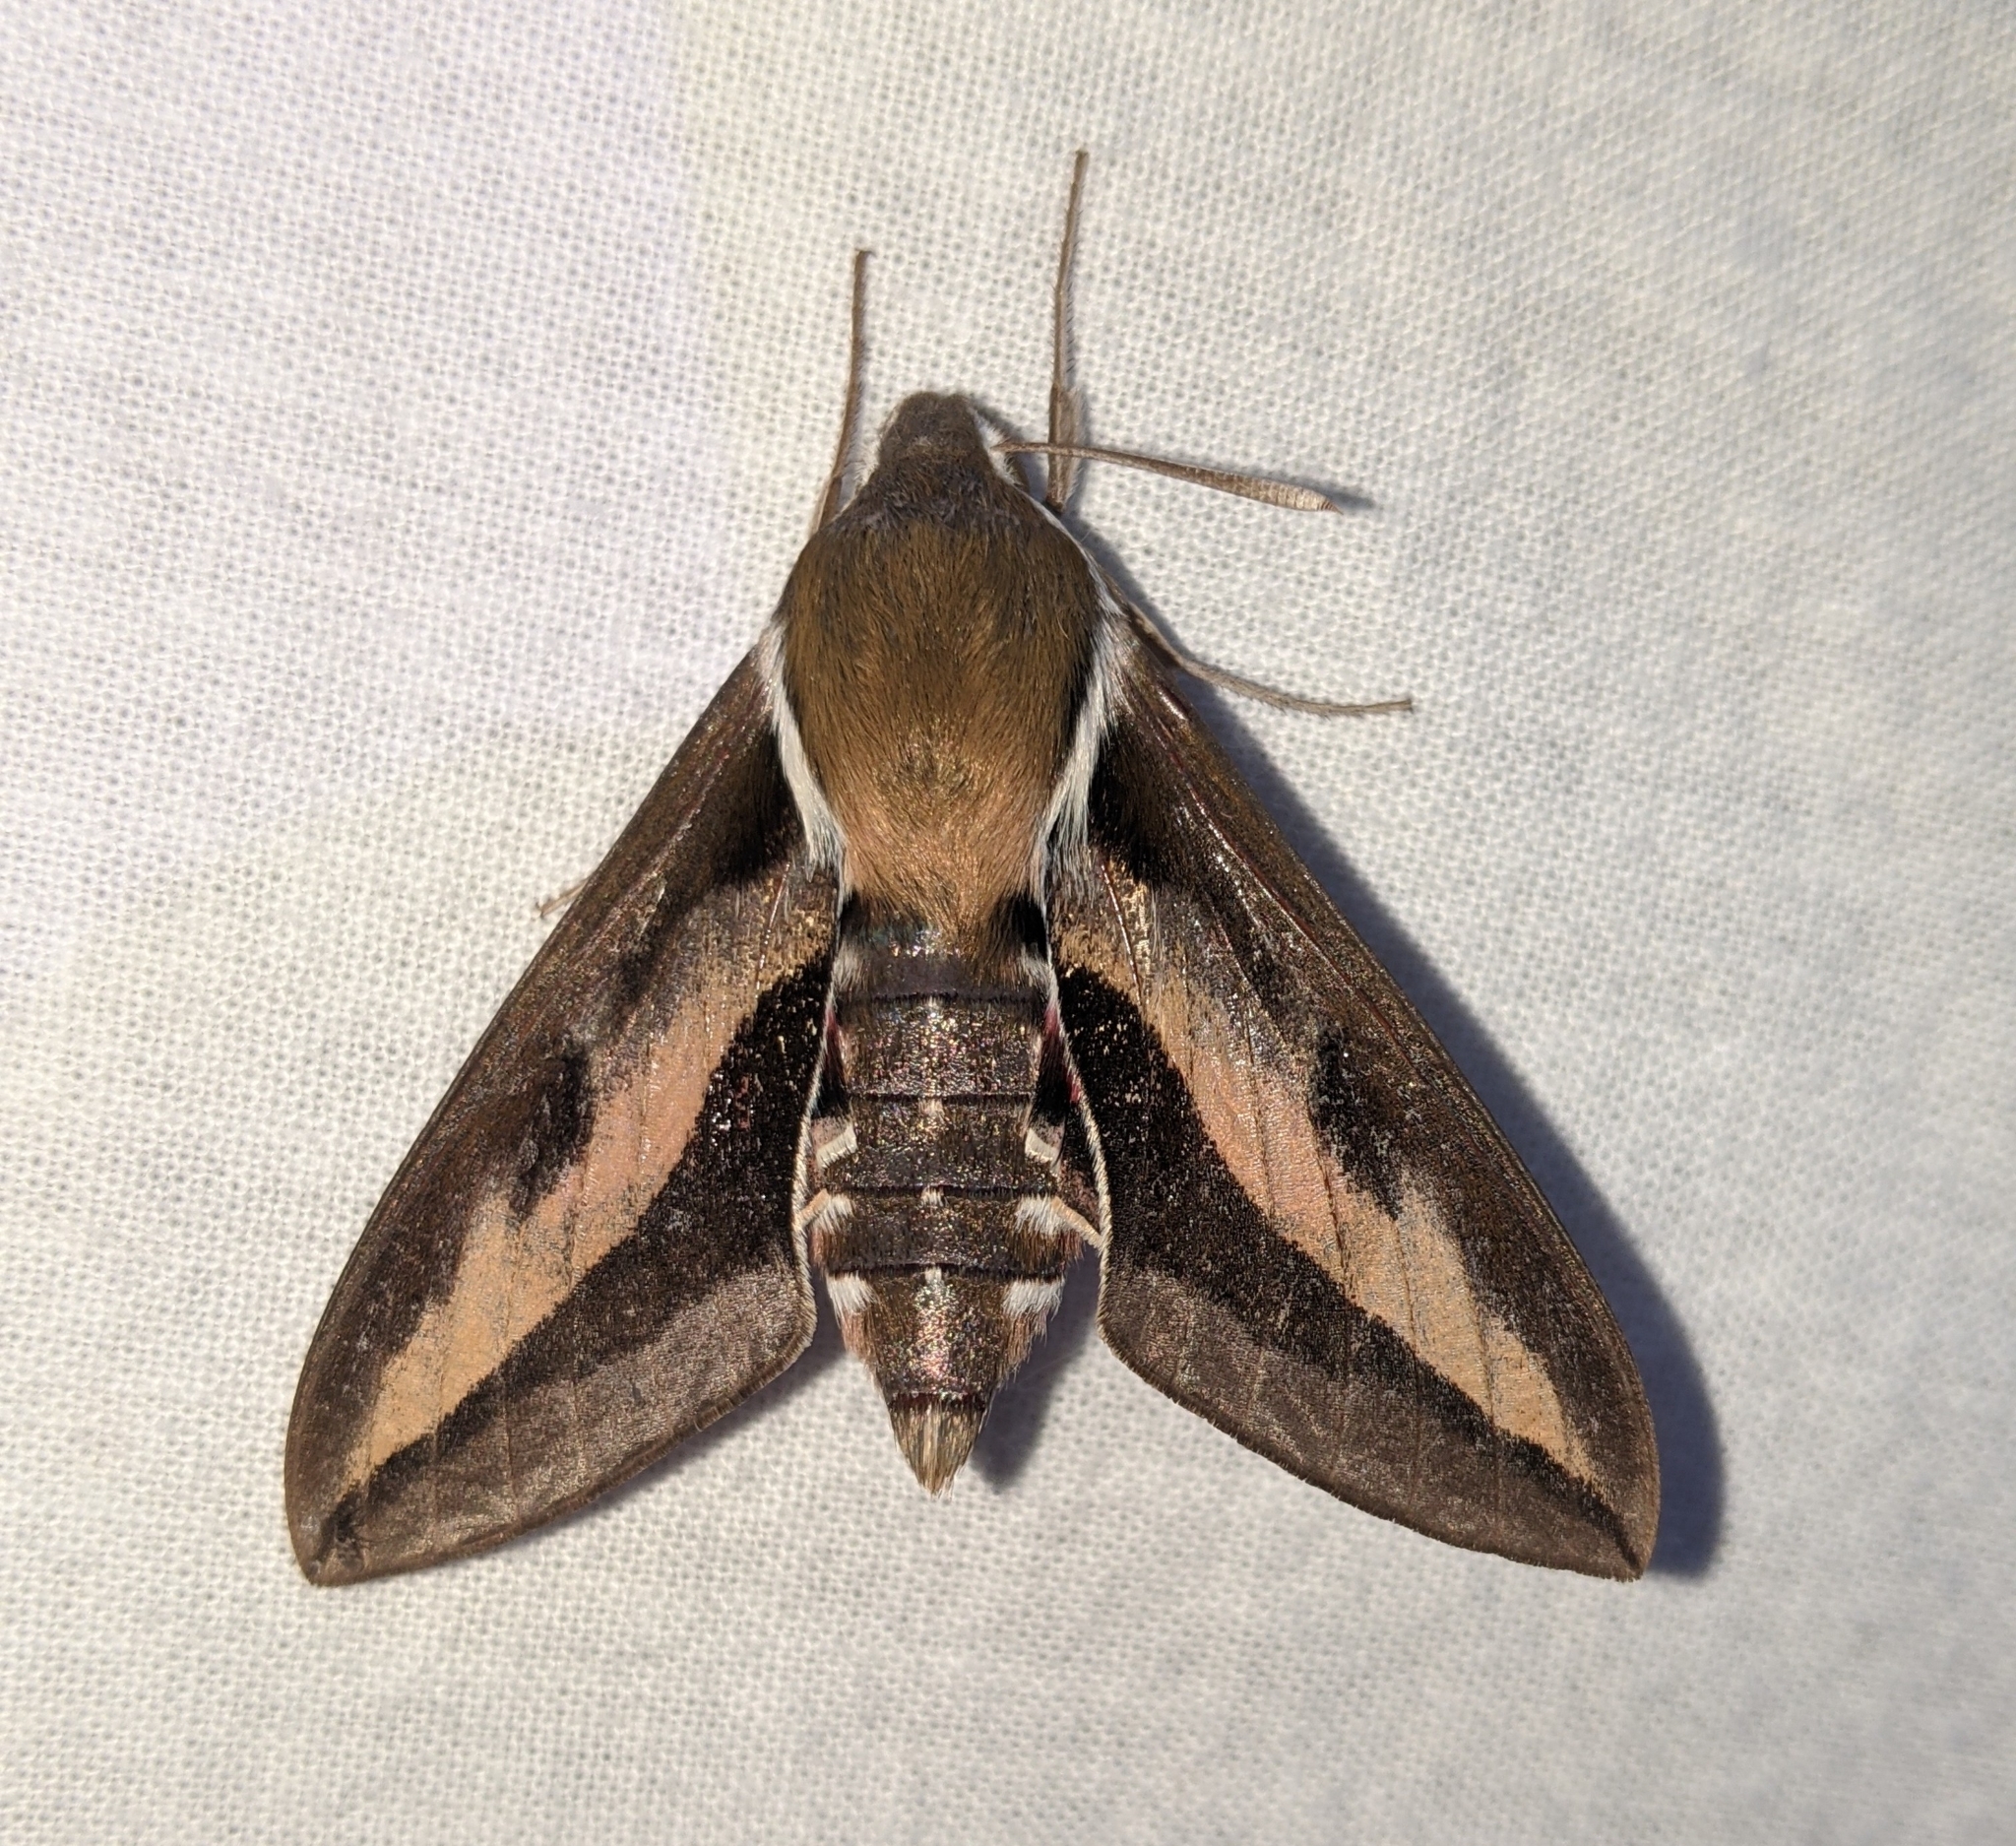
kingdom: Animalia
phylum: Arthropoda
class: Insecta
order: Lepidoptera
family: Sphingidae
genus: Hyles
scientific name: Hyles gallii
